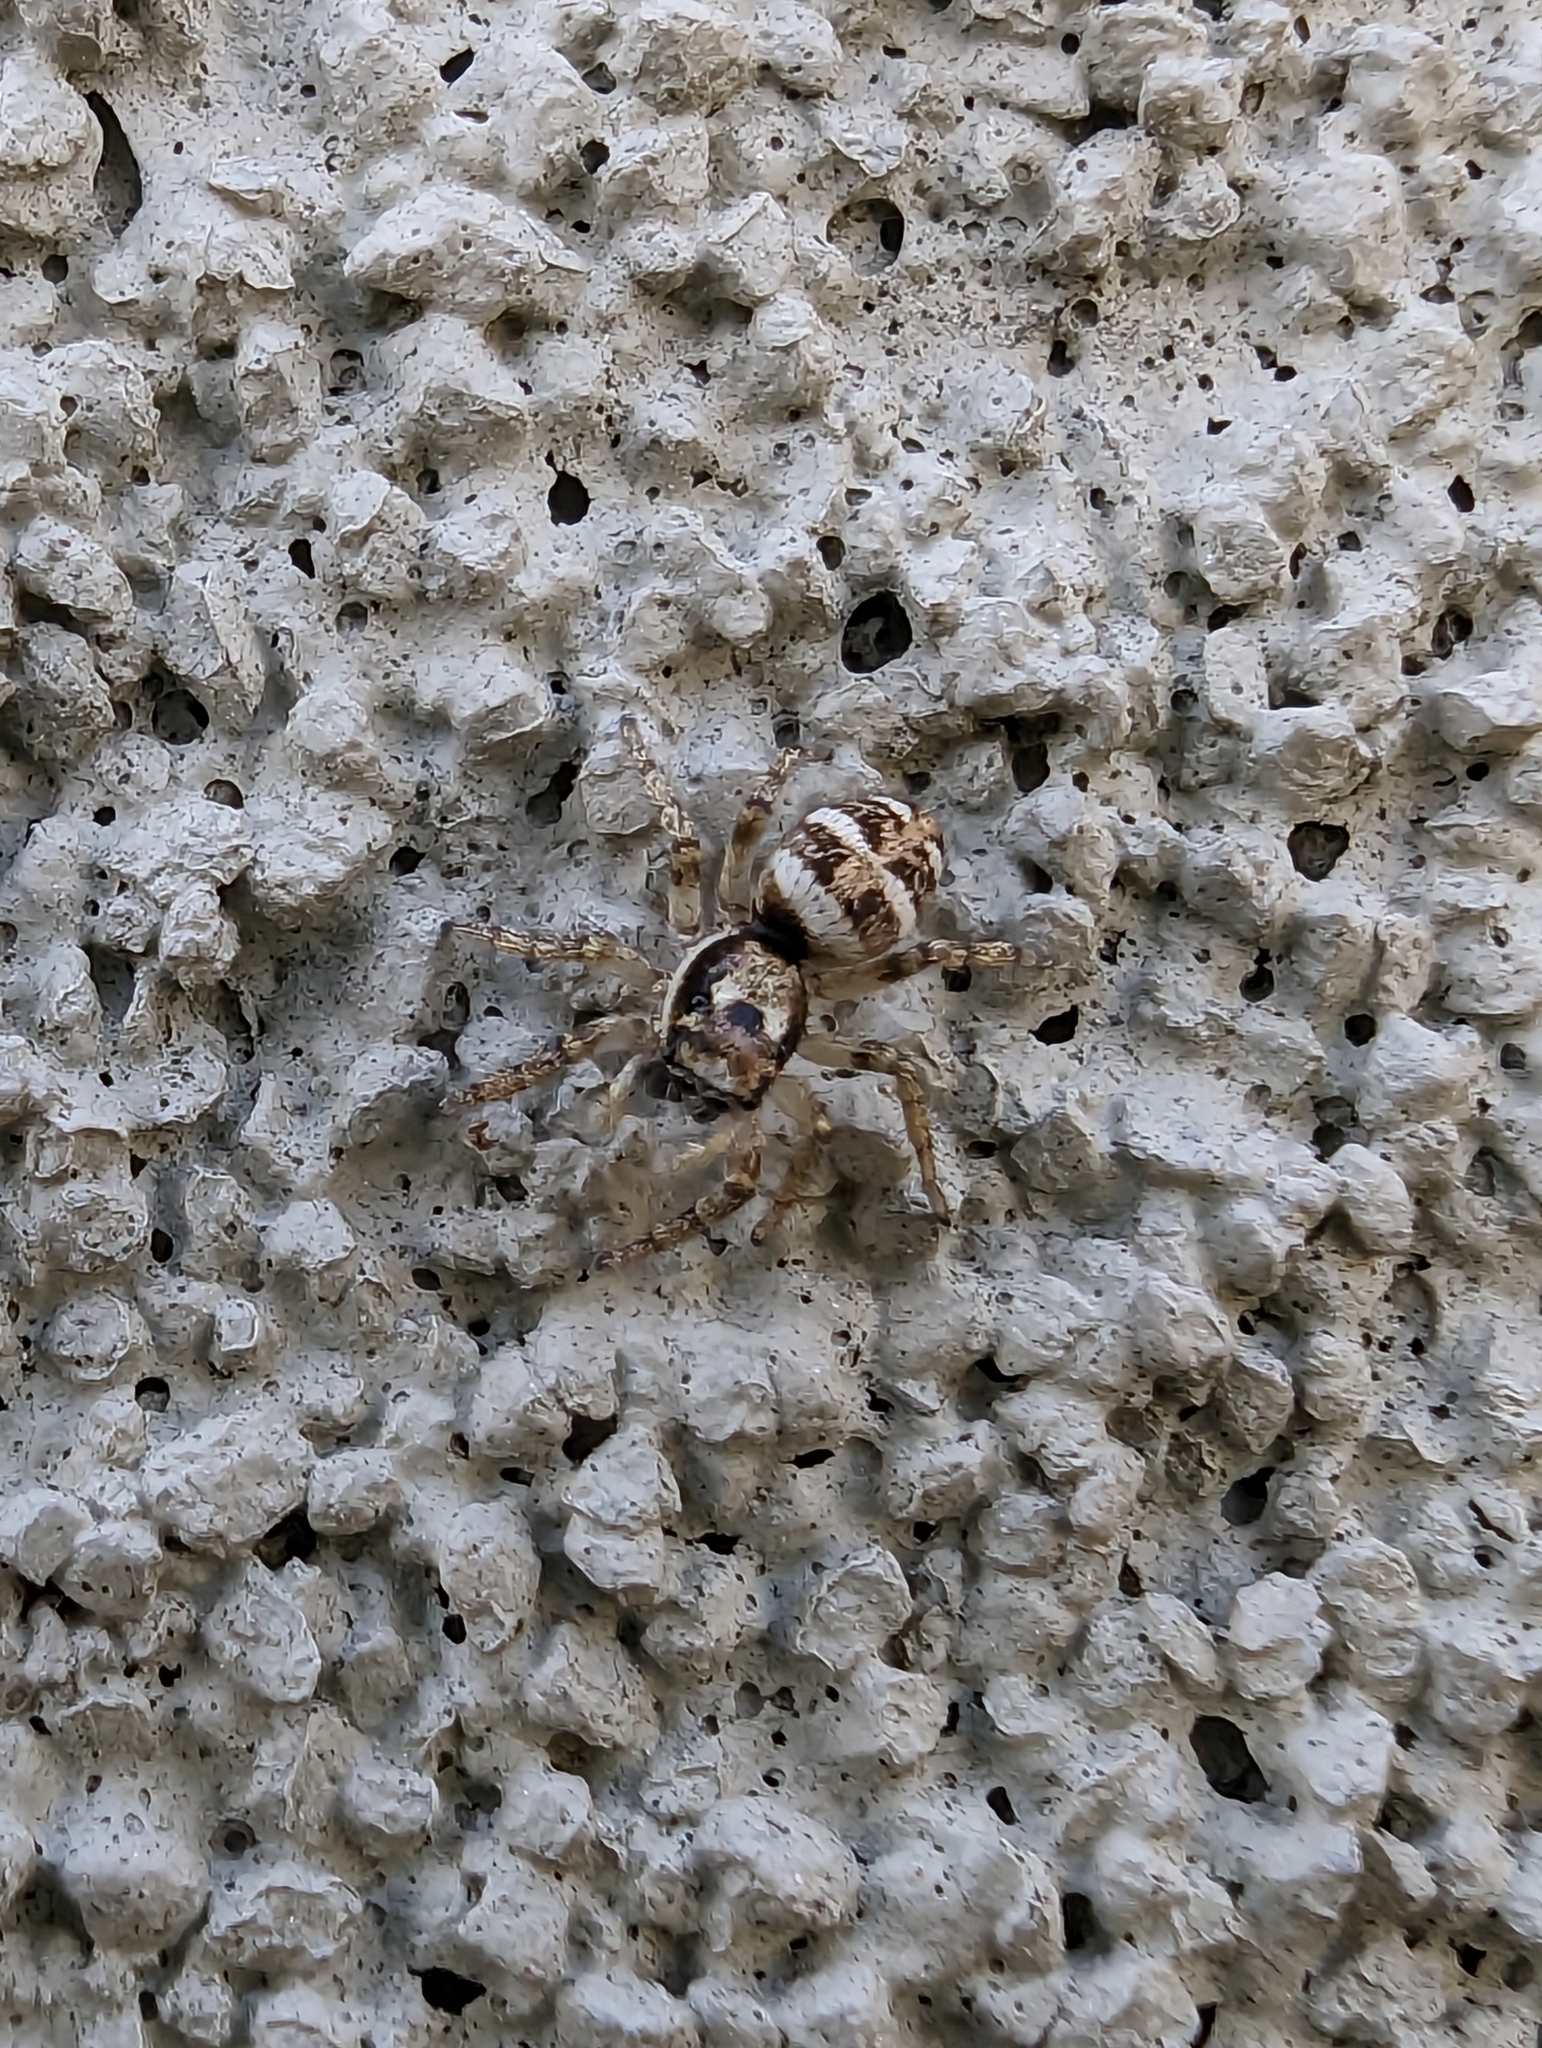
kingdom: Animalia
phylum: Arthropoda
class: Arachnida
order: Araneae
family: Salticidae
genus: Salticus
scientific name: Salticus scenicus
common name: Zebra jumper
